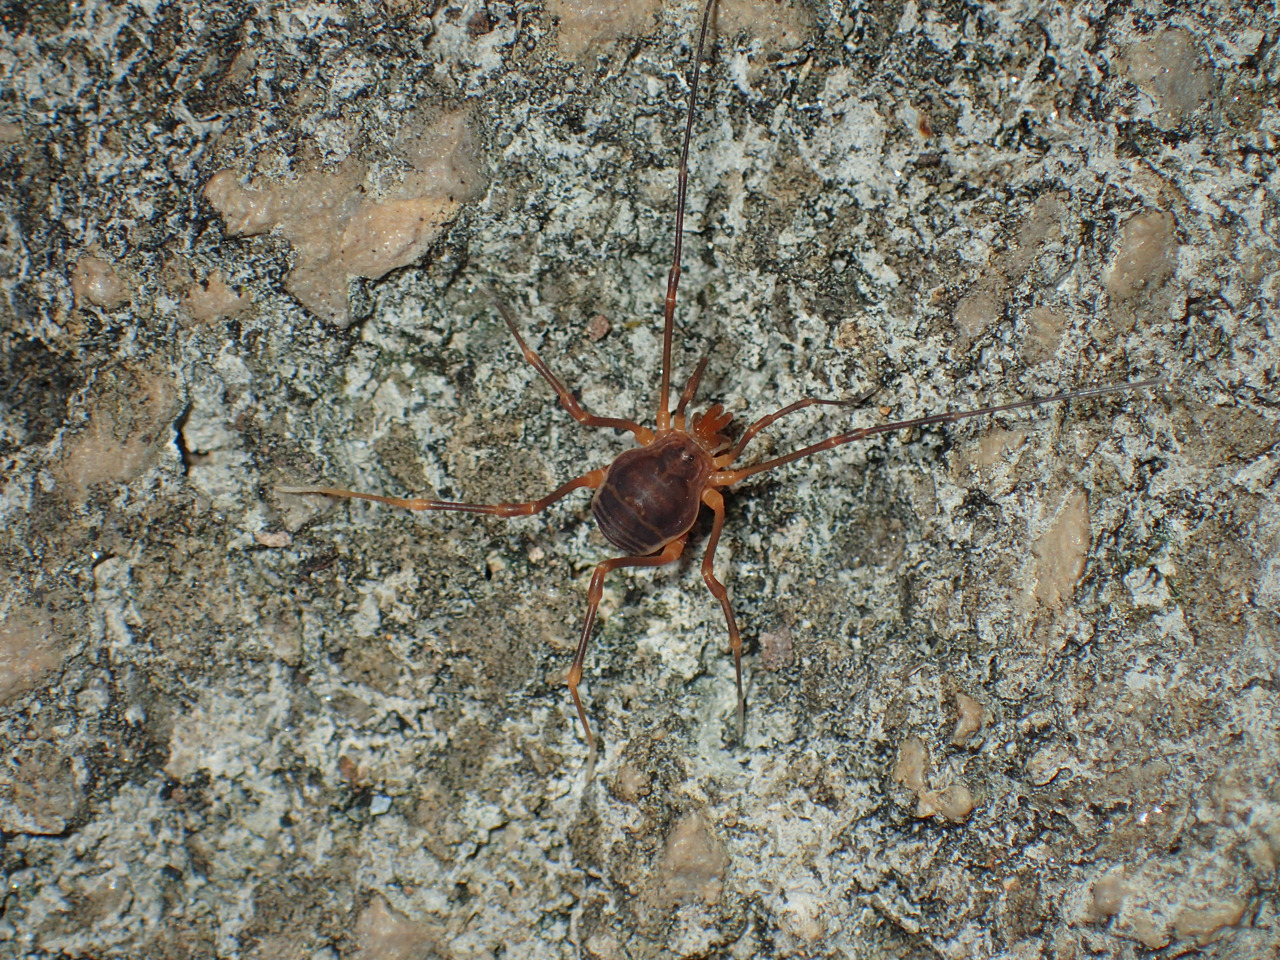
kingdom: Animalia
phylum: Arthropoda
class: Arachnida
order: Opiliones
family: Cosmetidae
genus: Libitioides
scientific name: Libitioides sayi
